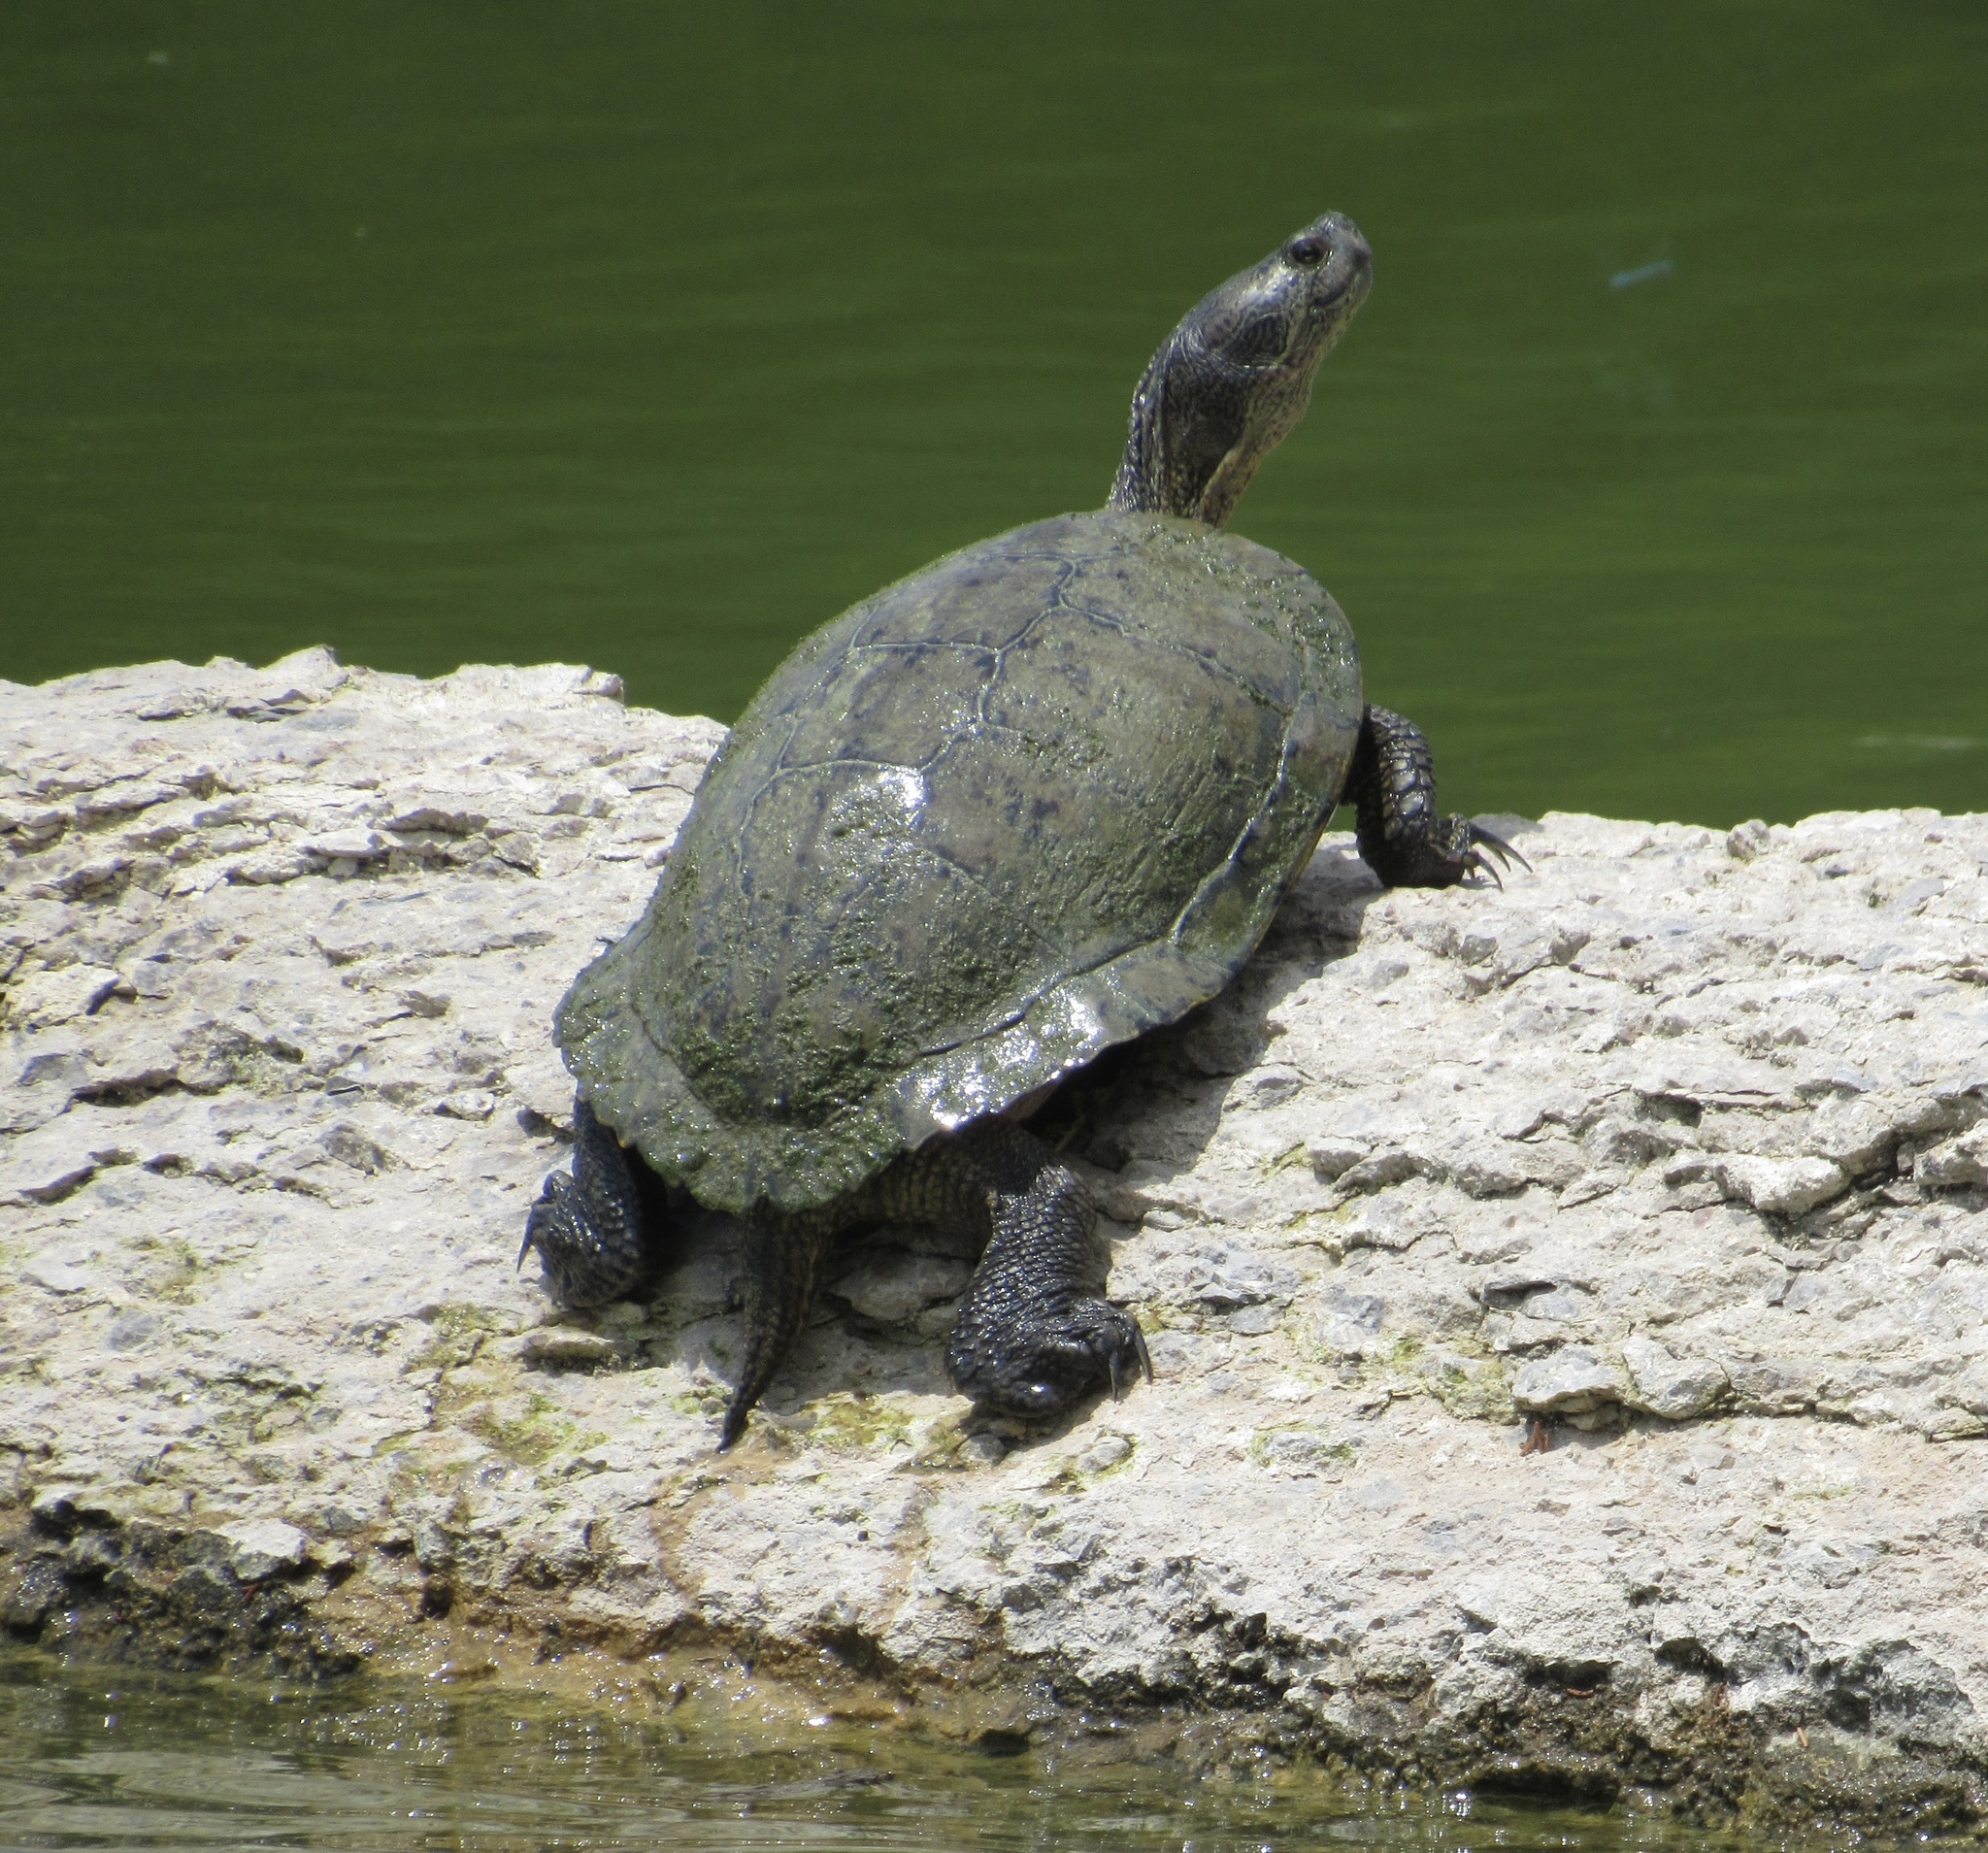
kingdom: Animalia
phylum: Chordata
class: Testudines
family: Emydidae
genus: Trachemys
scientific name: Trachemys scripta
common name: Slider
